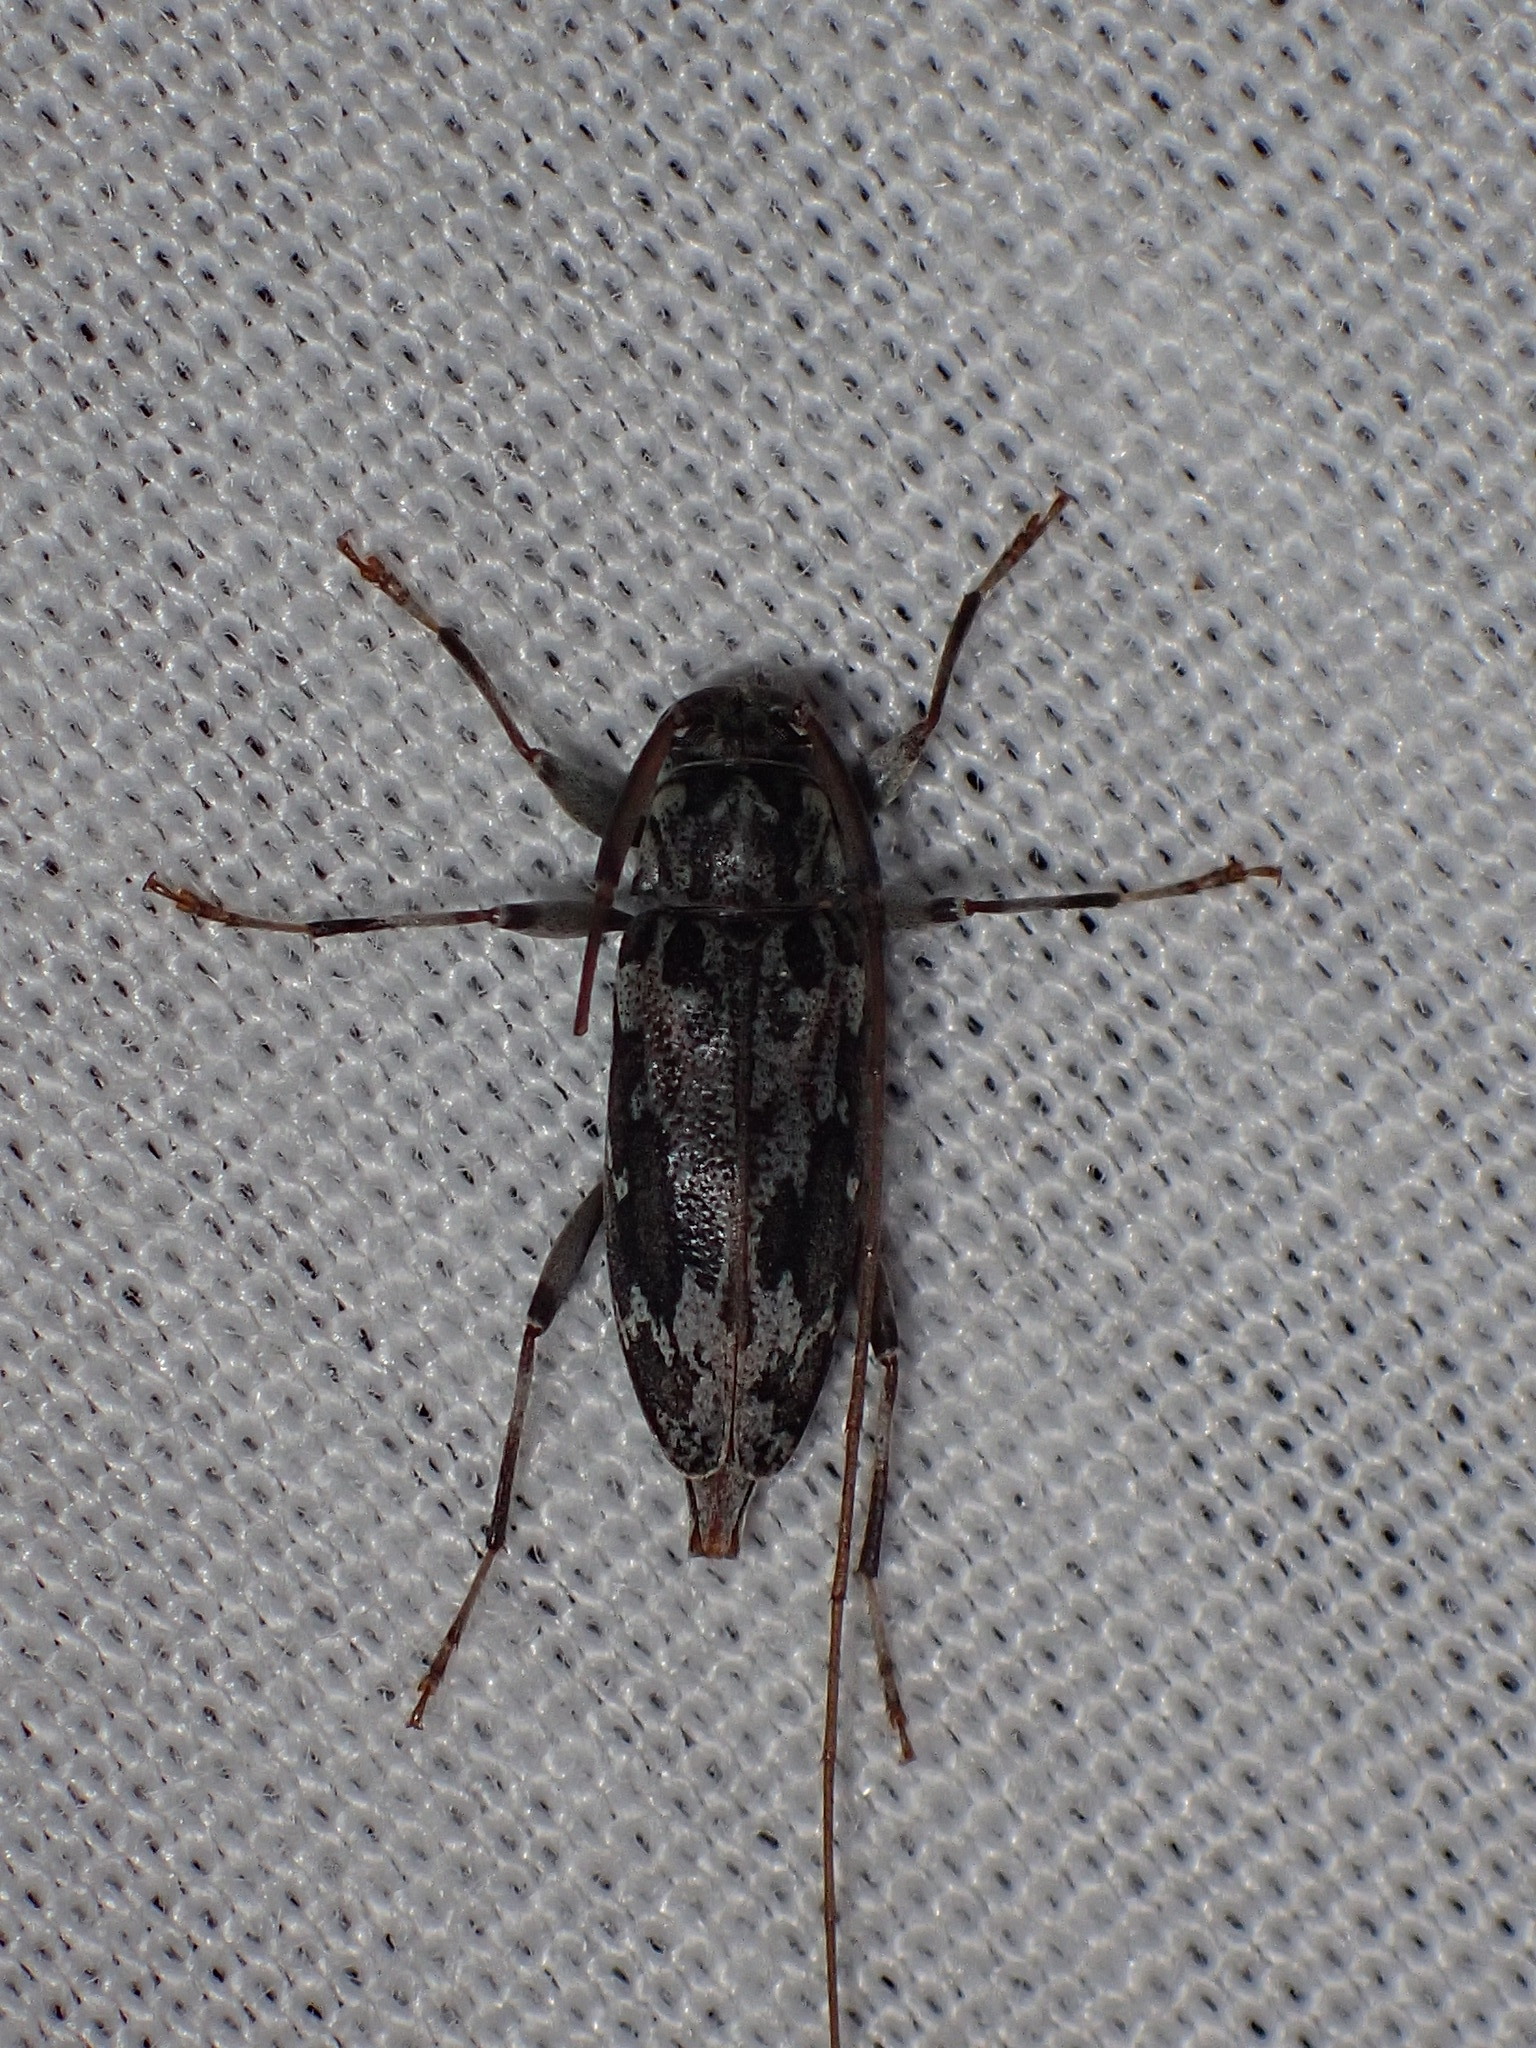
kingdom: Animalia
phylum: Arthropoda
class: Insecta
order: Coleoptera
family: Cerambycidae
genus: Lepturges
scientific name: Lepturges angulatus
